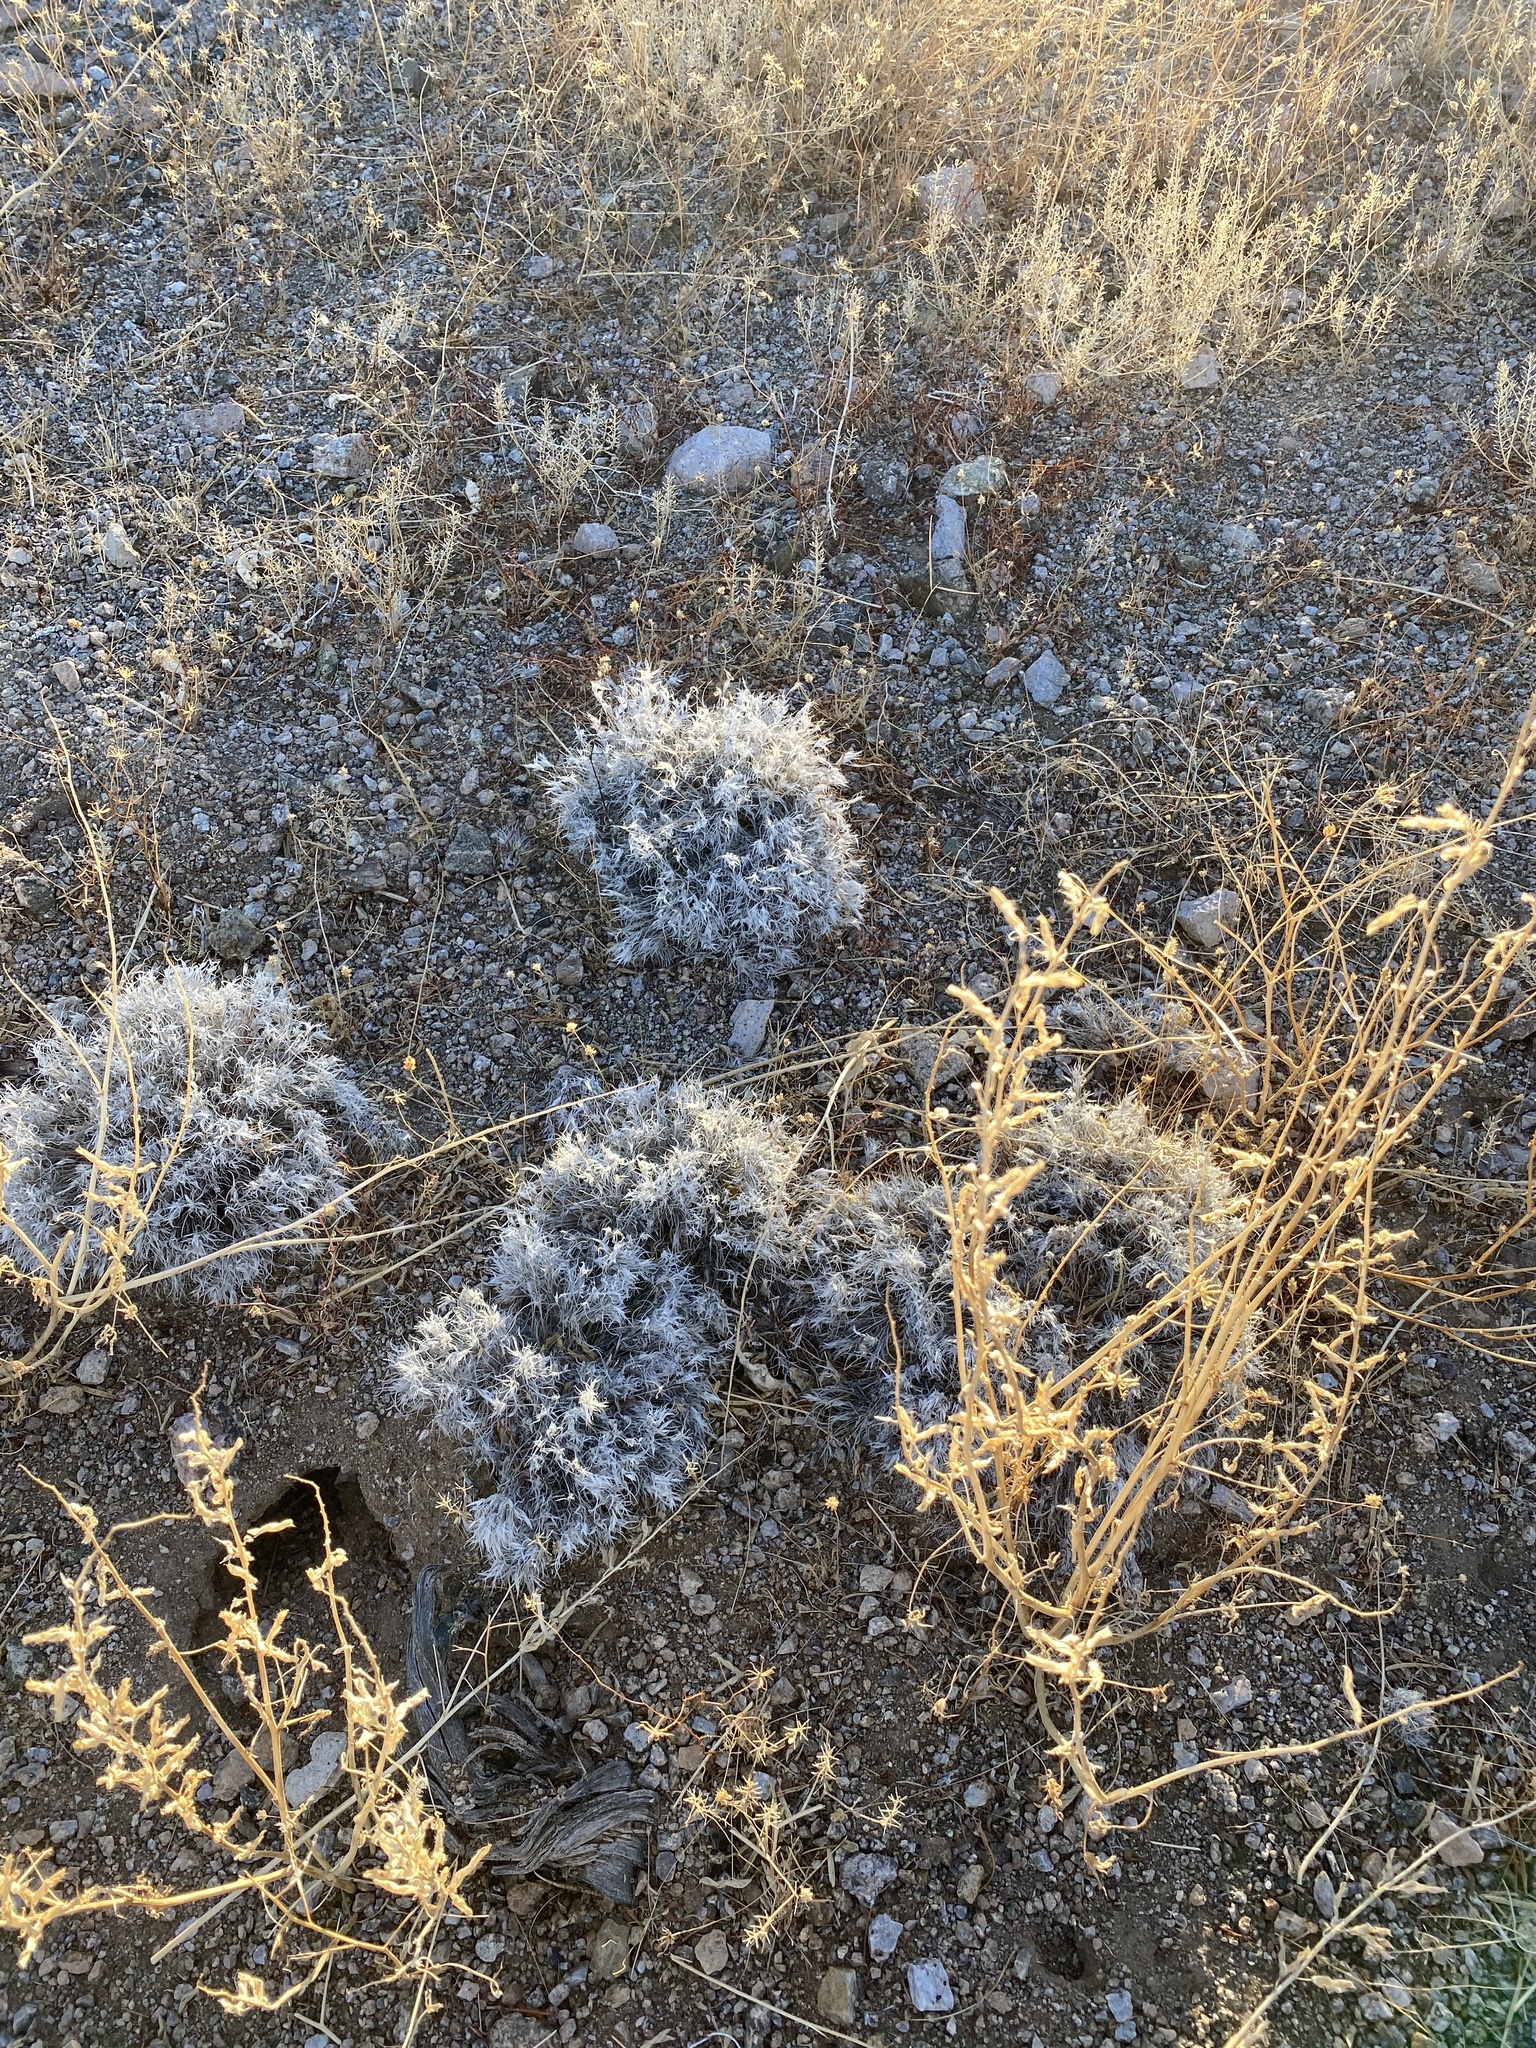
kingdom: Plantae
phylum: Tracheophyta
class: Liliopsida
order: Poales
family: Poaceae
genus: Dasyochloa
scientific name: Dasyochloa pulchella
